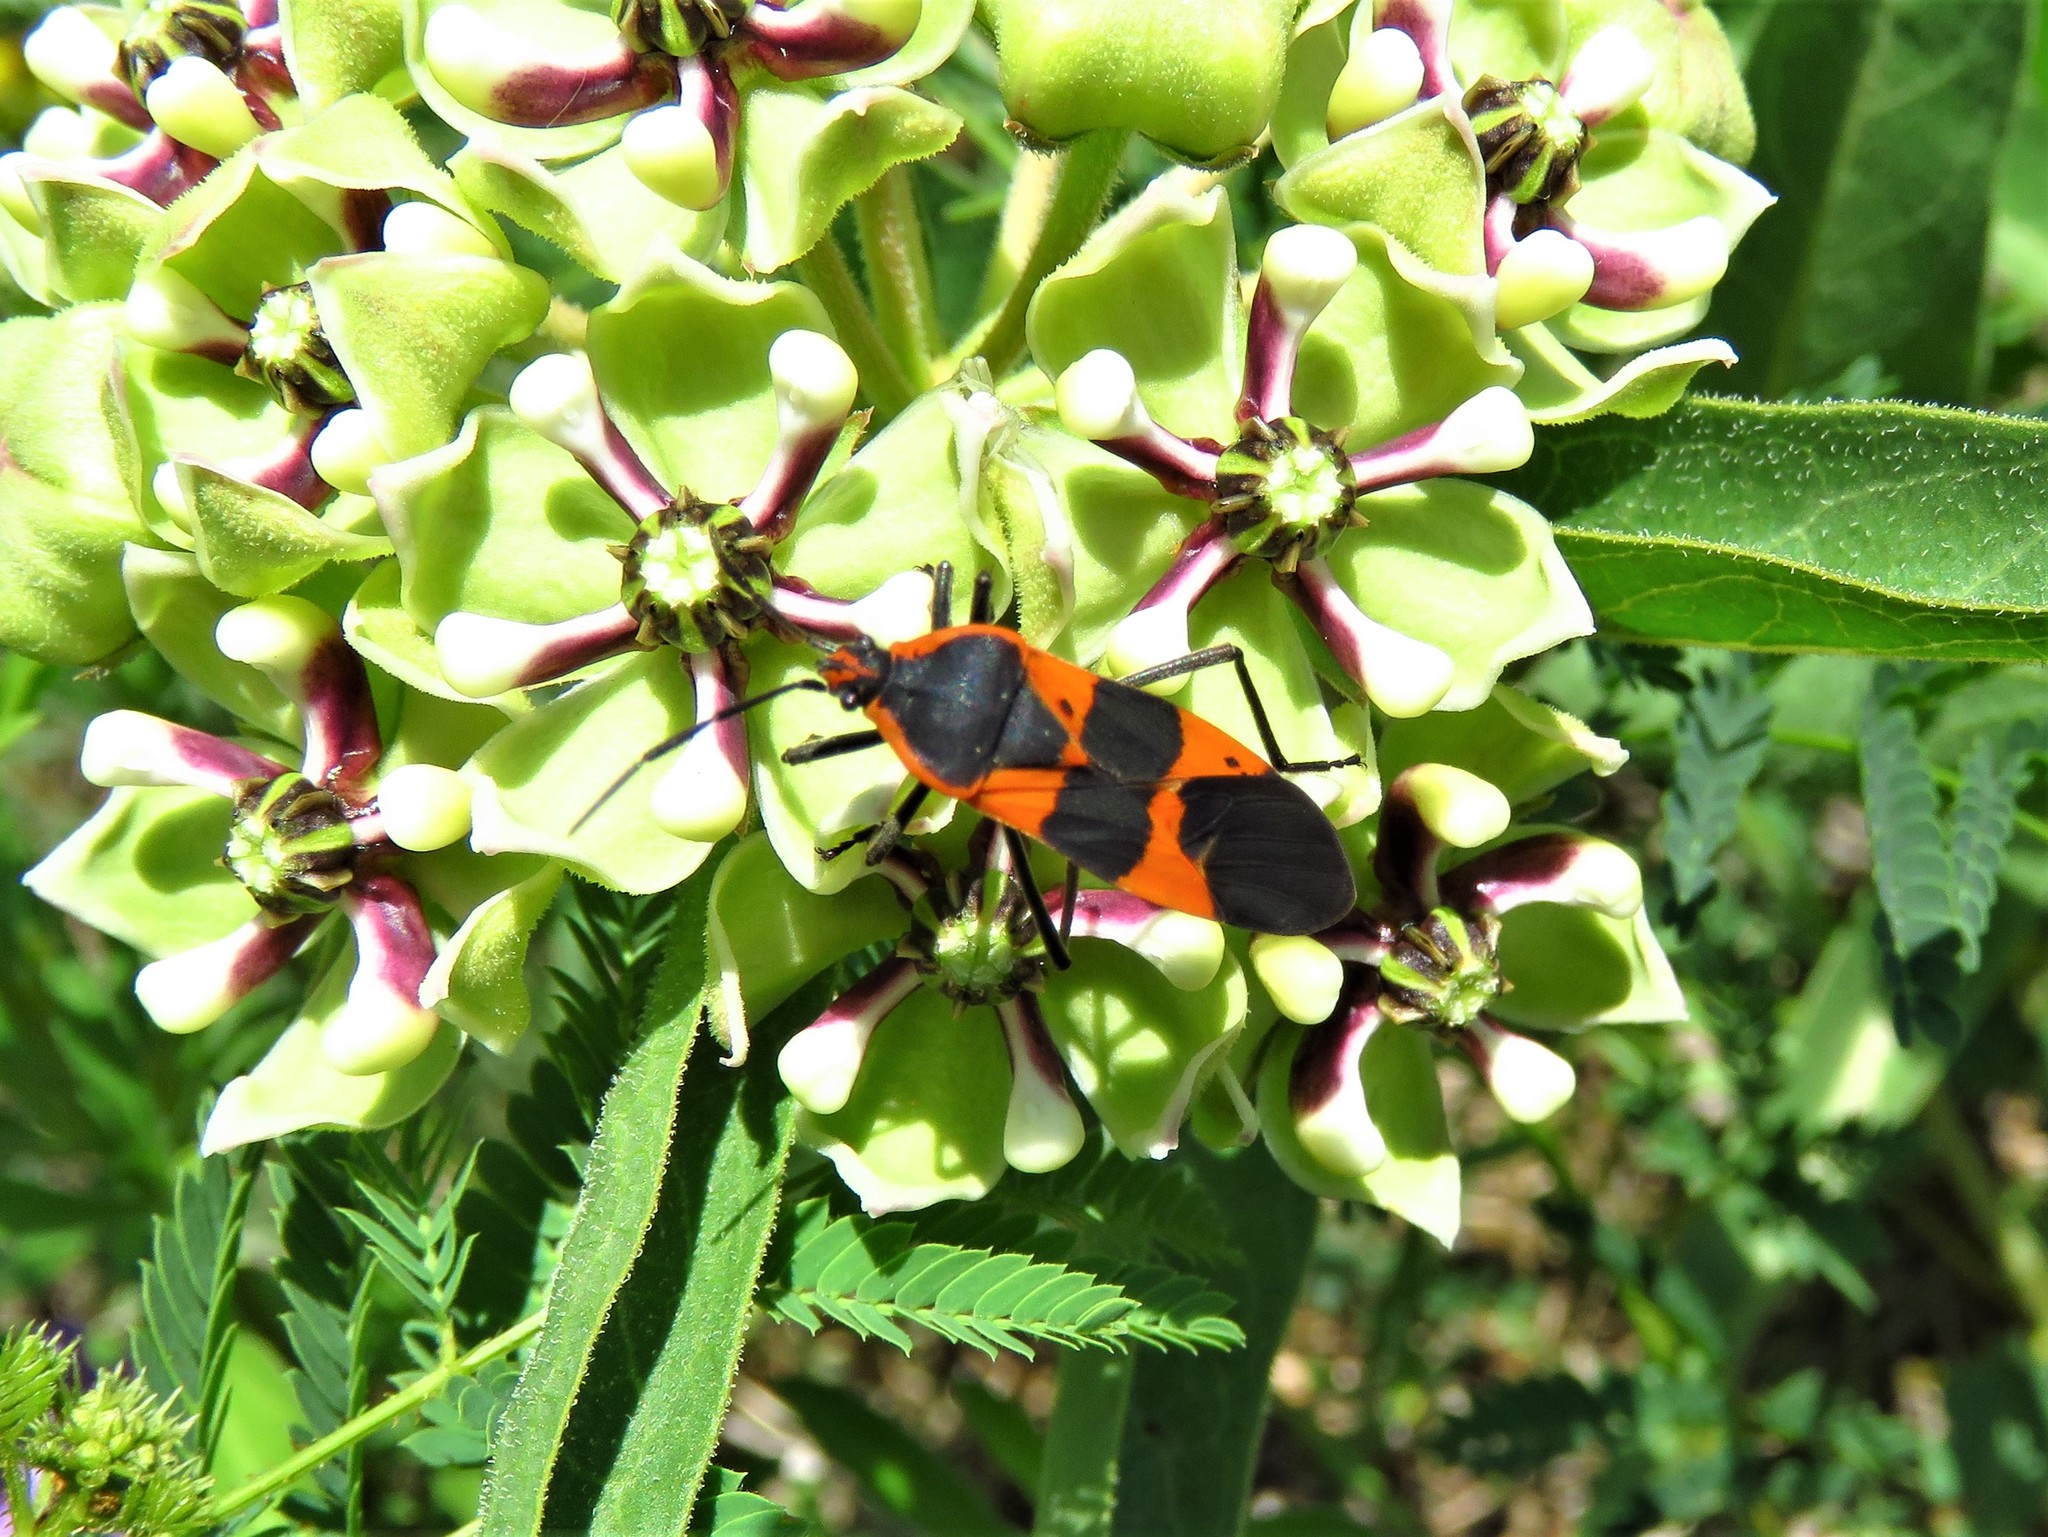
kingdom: Animalia
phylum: Arthropoda
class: Insecta
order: Hemiptera
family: Lygaeidae
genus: Oncopeltus
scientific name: Oncopeltus fasciatus
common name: Large milkweed bug
